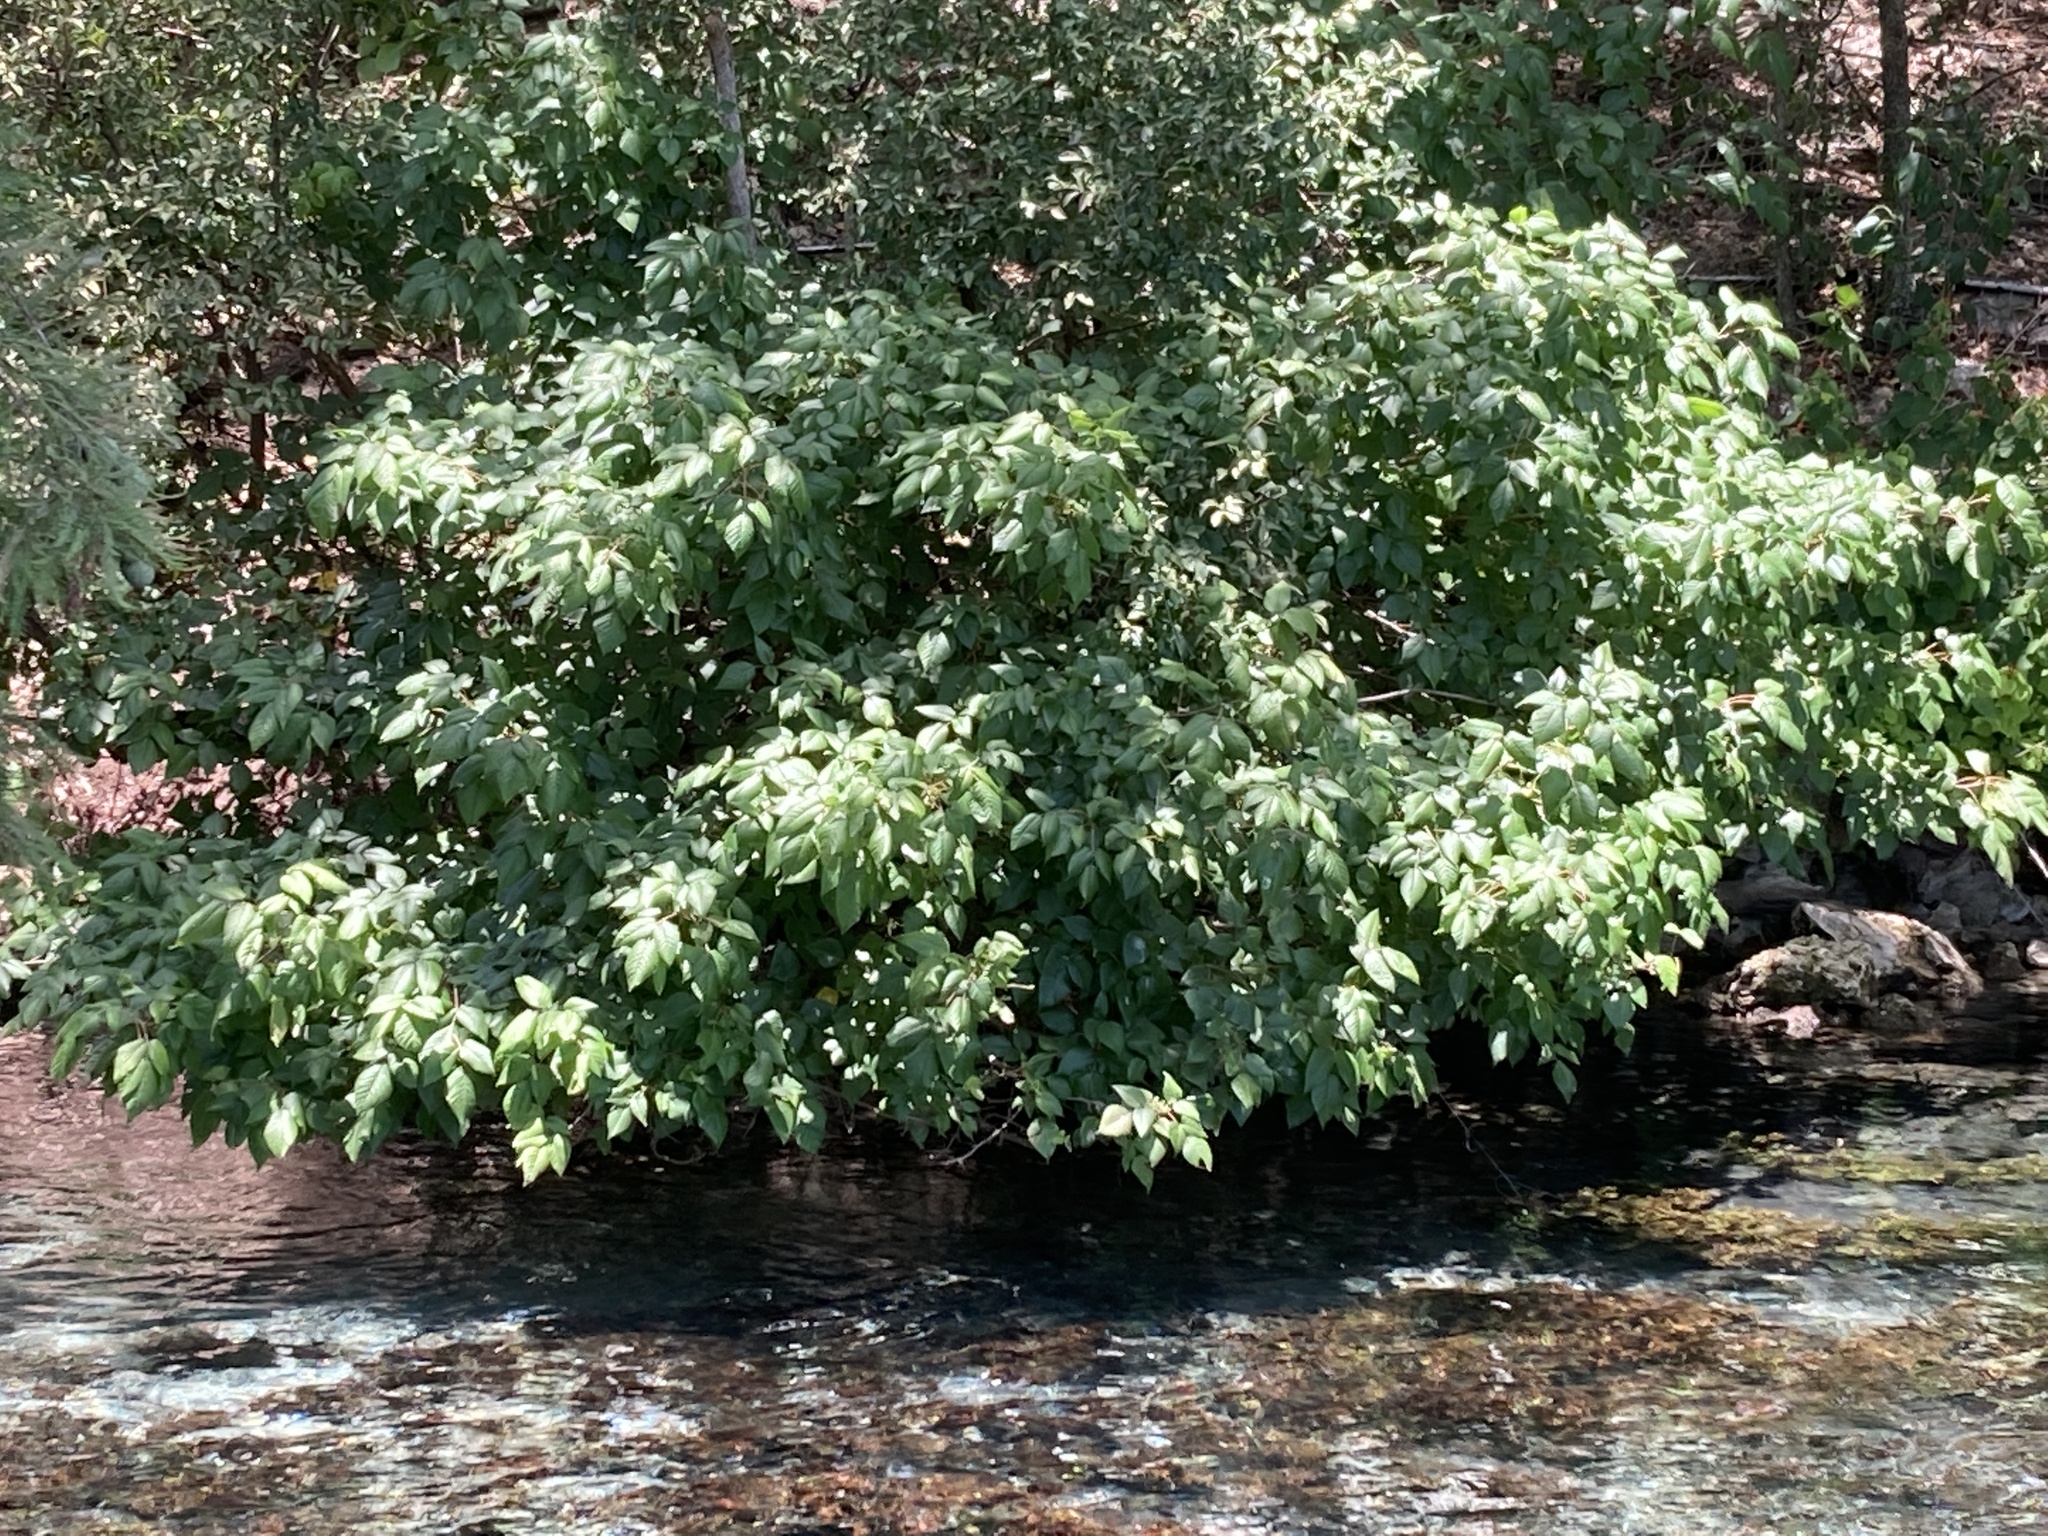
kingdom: Plantae
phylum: Tracheophyta
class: Magnoliopsida
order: Sapindales
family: Anacardiaceae
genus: Toxicodendron
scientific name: Toxicodendron radicans
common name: Poison ivy
